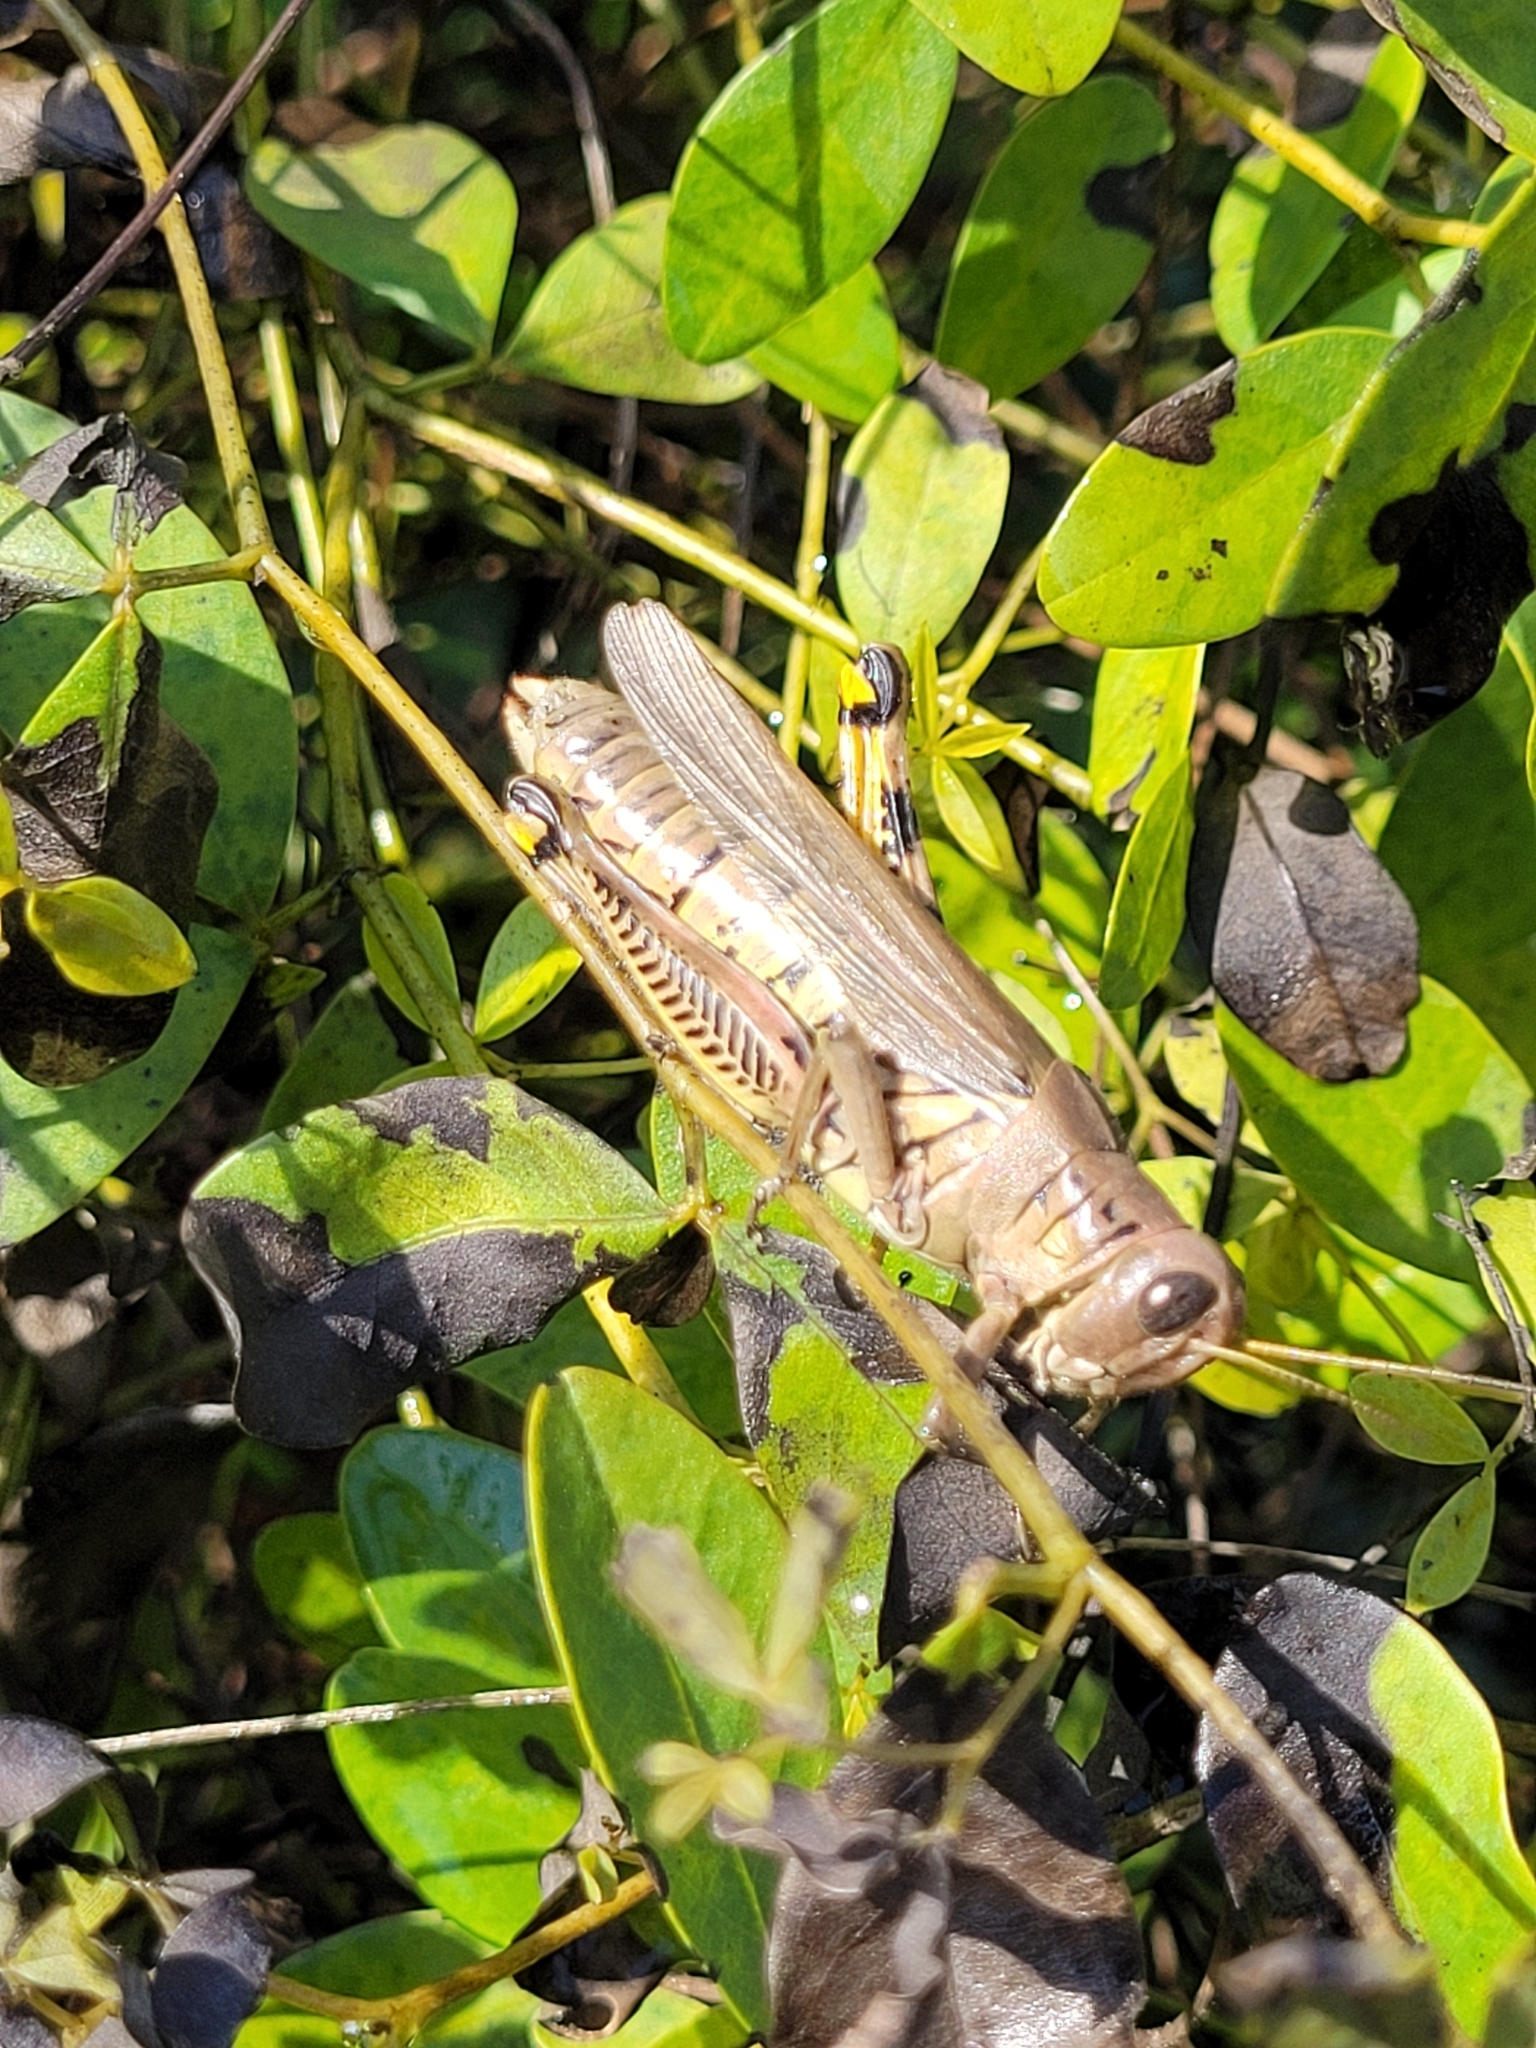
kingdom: Animalia
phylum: Arthropoda
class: Insecta
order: Orthoptera
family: Acrididae
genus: Melanoplus
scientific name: Melanoplus differentialis
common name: Differential grasshopper
